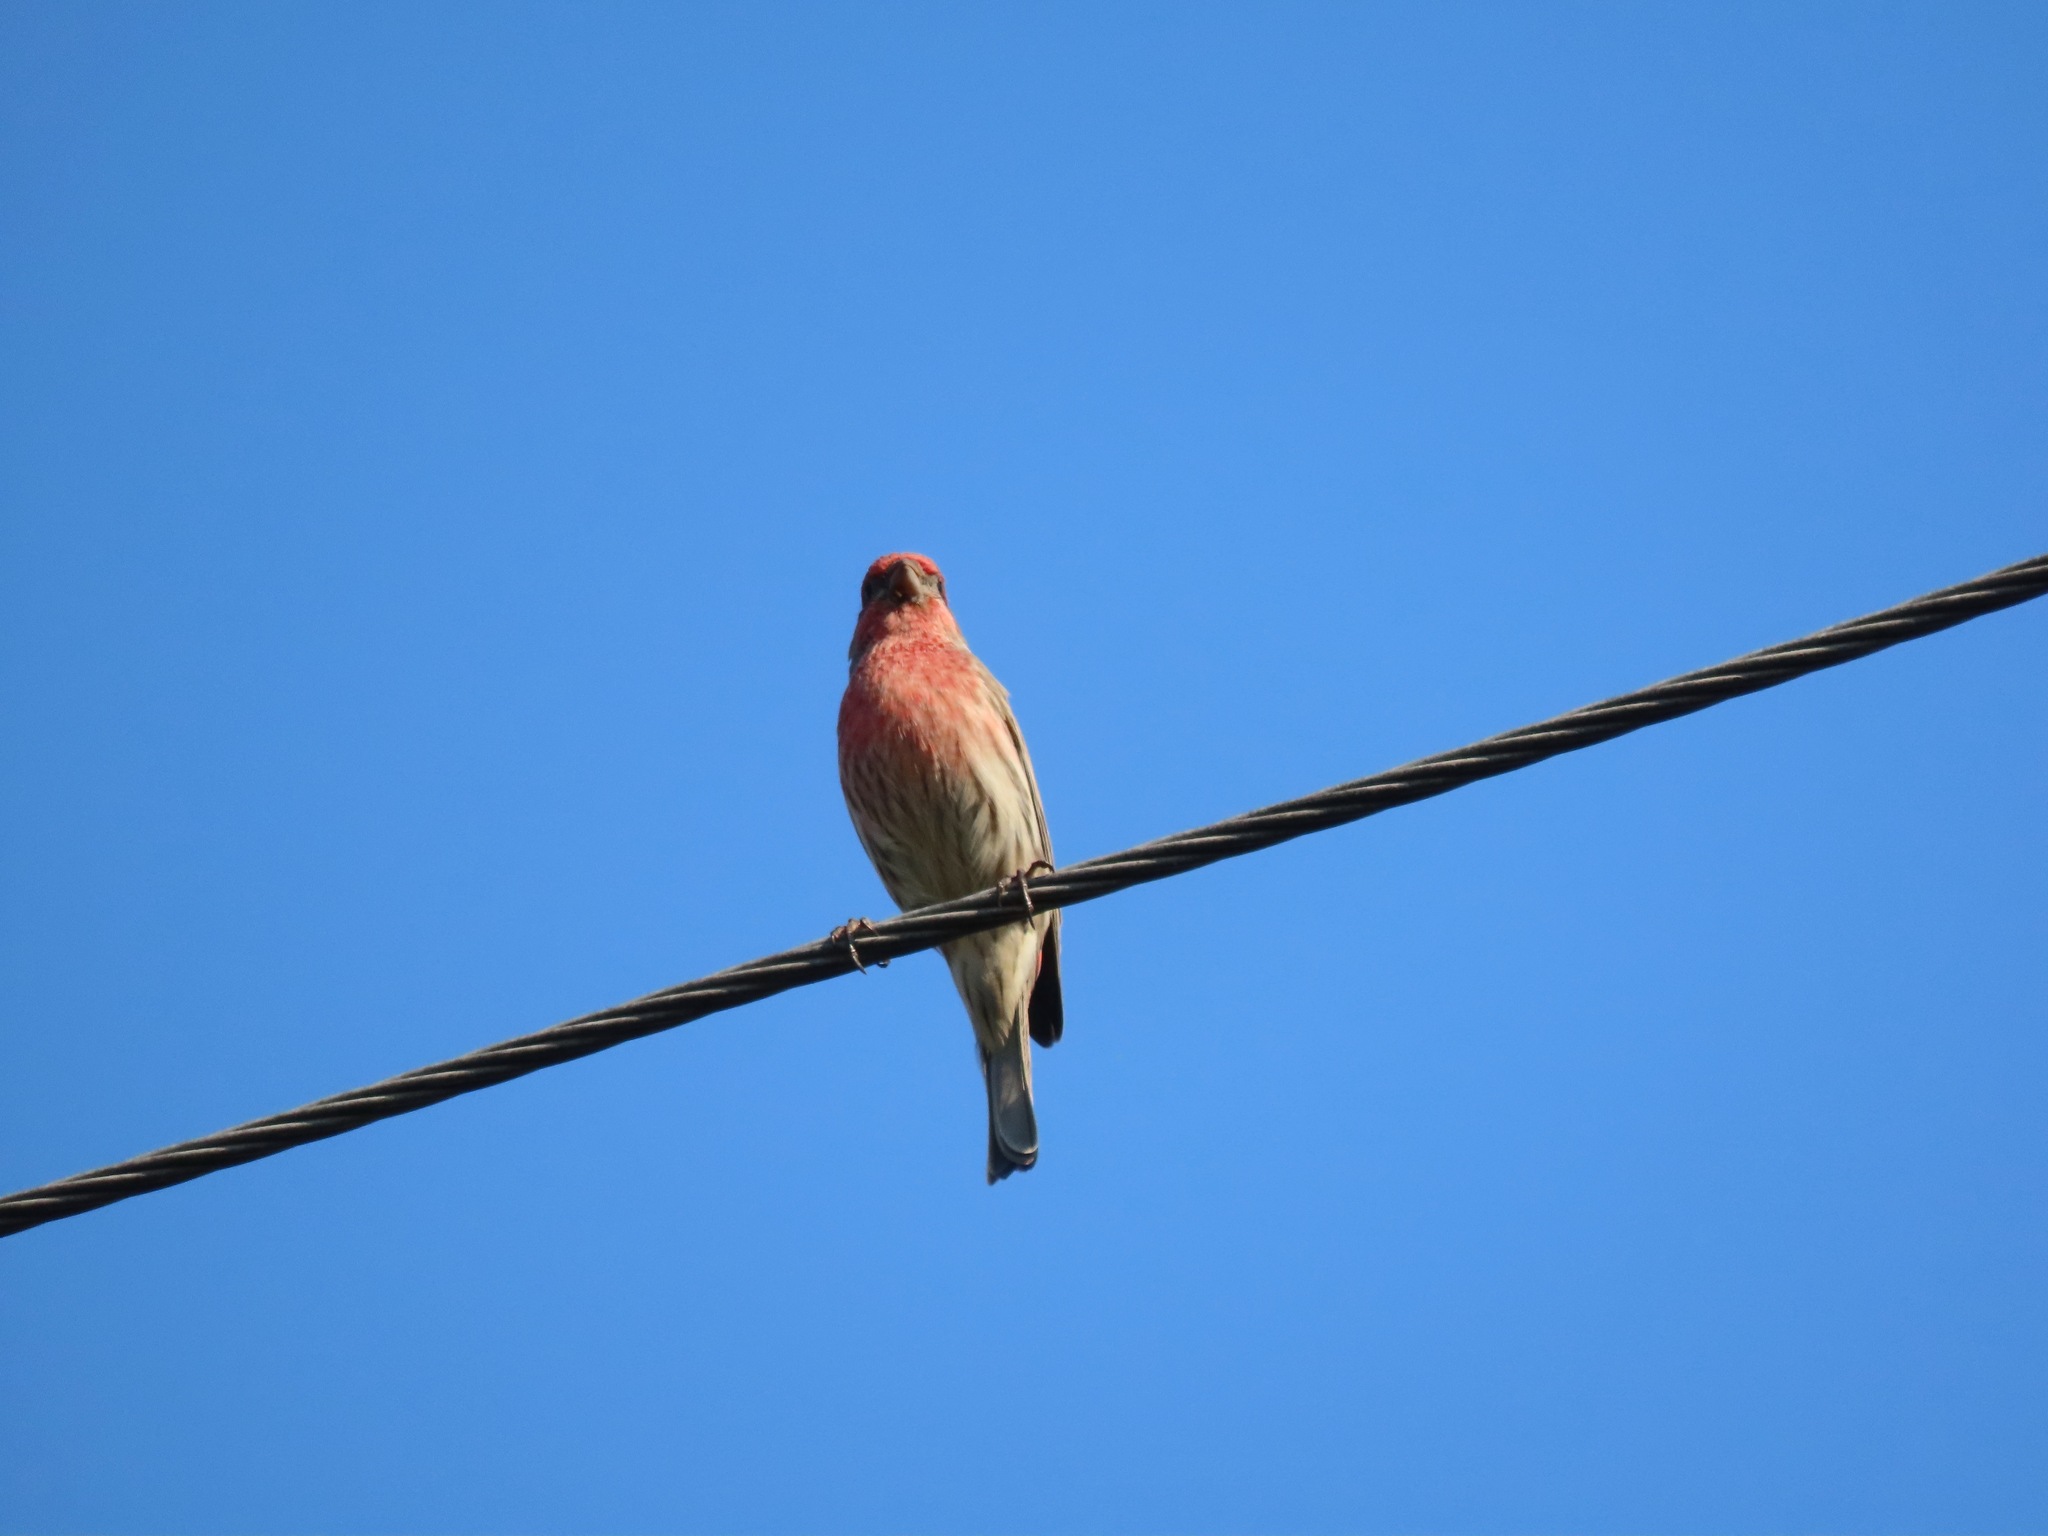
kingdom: Animalia
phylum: Chordata
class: Aves
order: Passeriformes
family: Fringillidae
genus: Haemorhous
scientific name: Haemorhous mexicanus
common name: House finch
